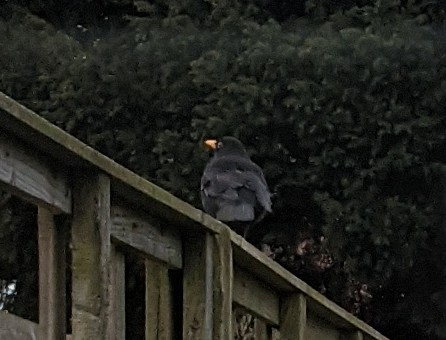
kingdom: Animalia
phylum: Chordata
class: Aves
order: Passeriformes
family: Turdidae
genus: Turdus
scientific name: Turdus merula
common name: Common blackbird
